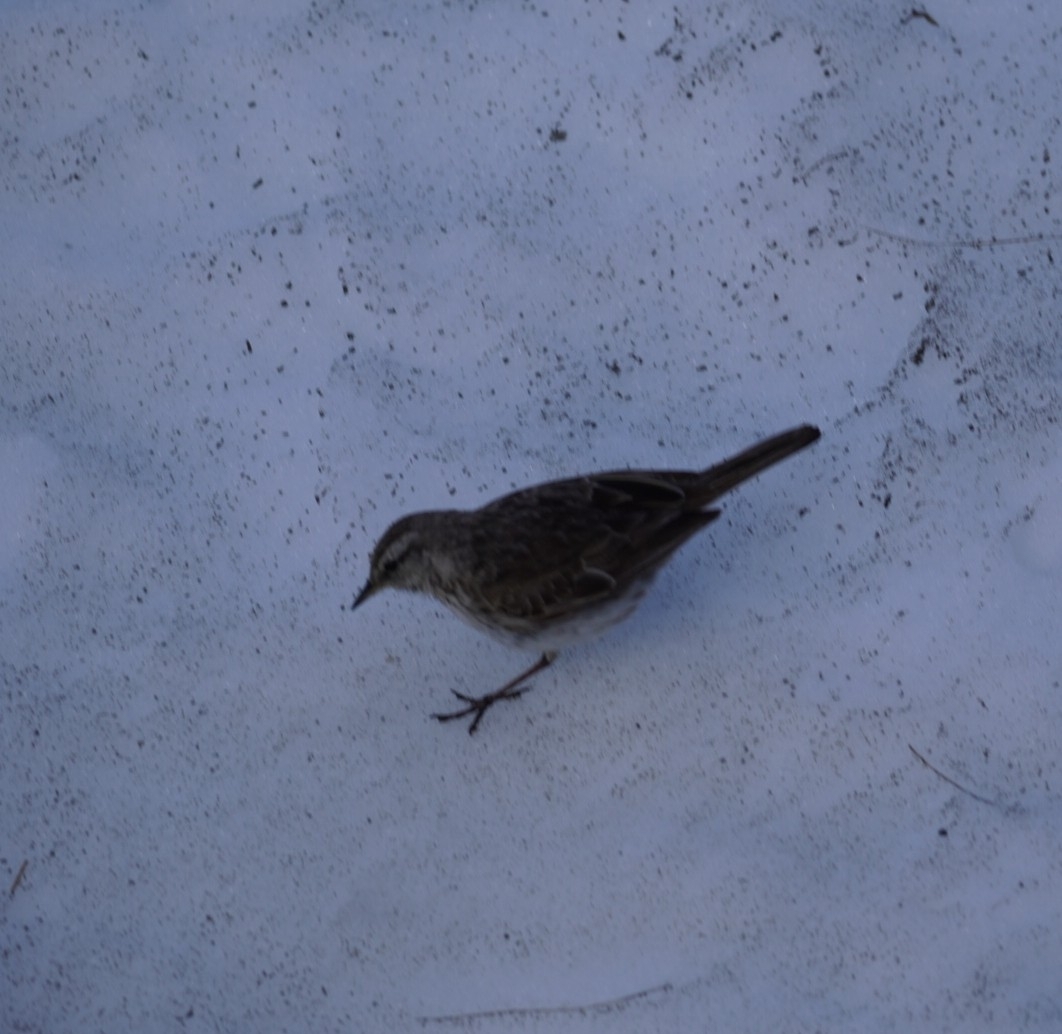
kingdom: Animalia
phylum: Chordata
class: Aves
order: Passeriformes
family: Motacillidae
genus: Anthus
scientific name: Anthus novaeseelandiae
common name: New zealand pipit
